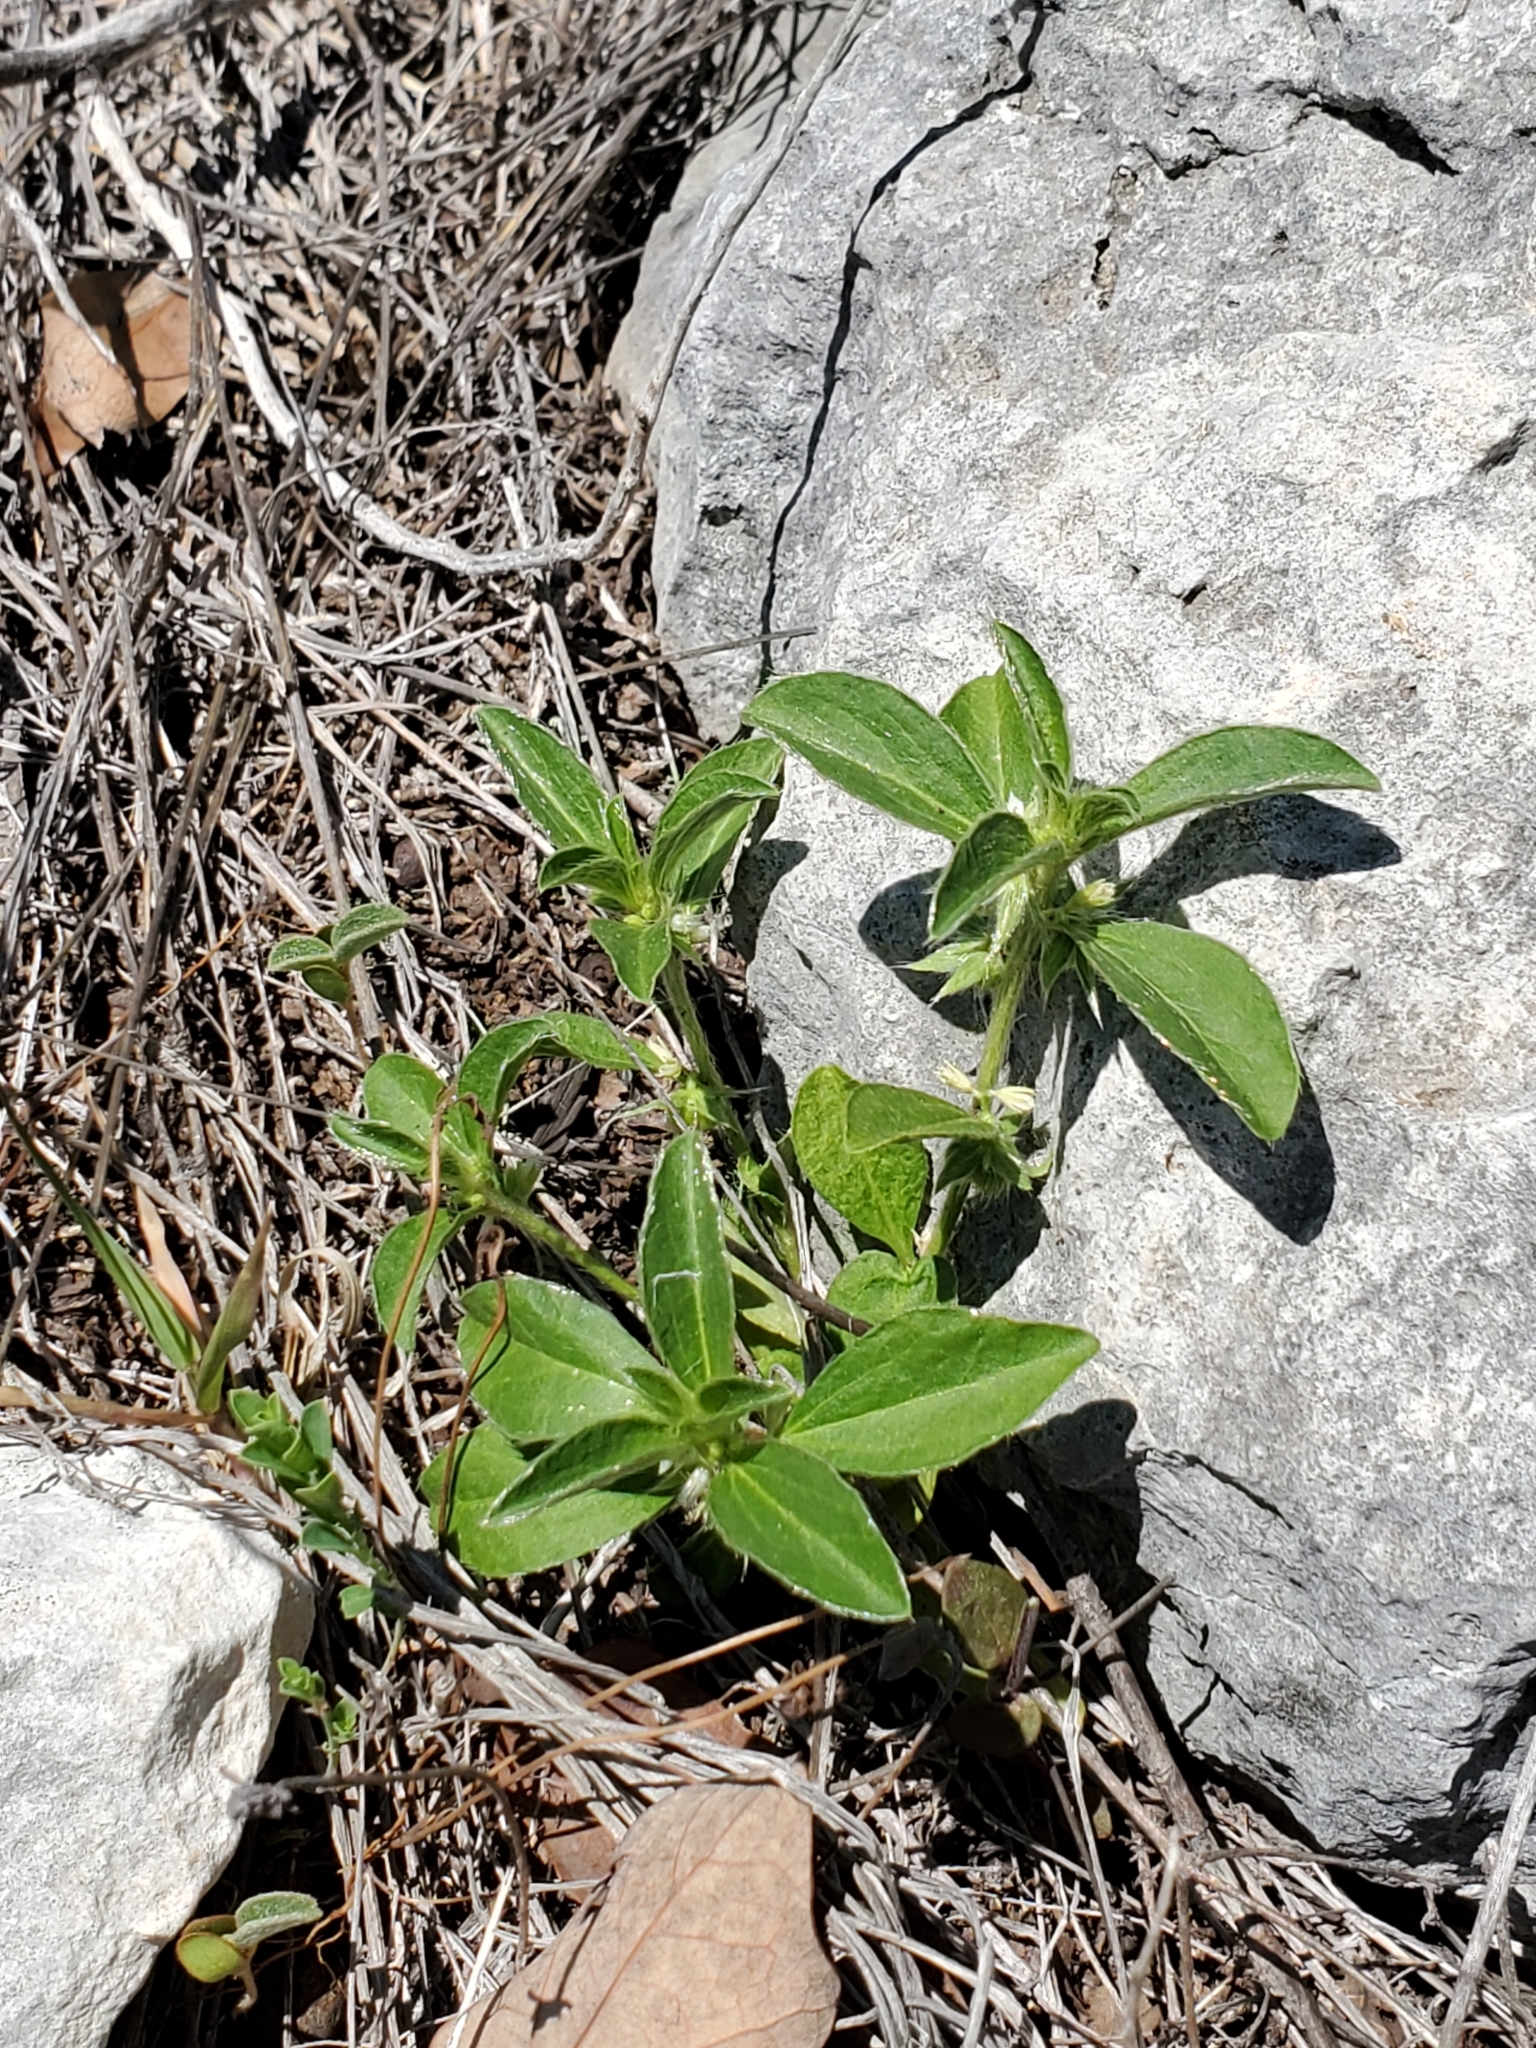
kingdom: Plantae
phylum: Tracheophyta
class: Magnoliopsida
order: Malpighiales
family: Euphorbiaceae
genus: Ditaxis
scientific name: Ditaxis serrata
